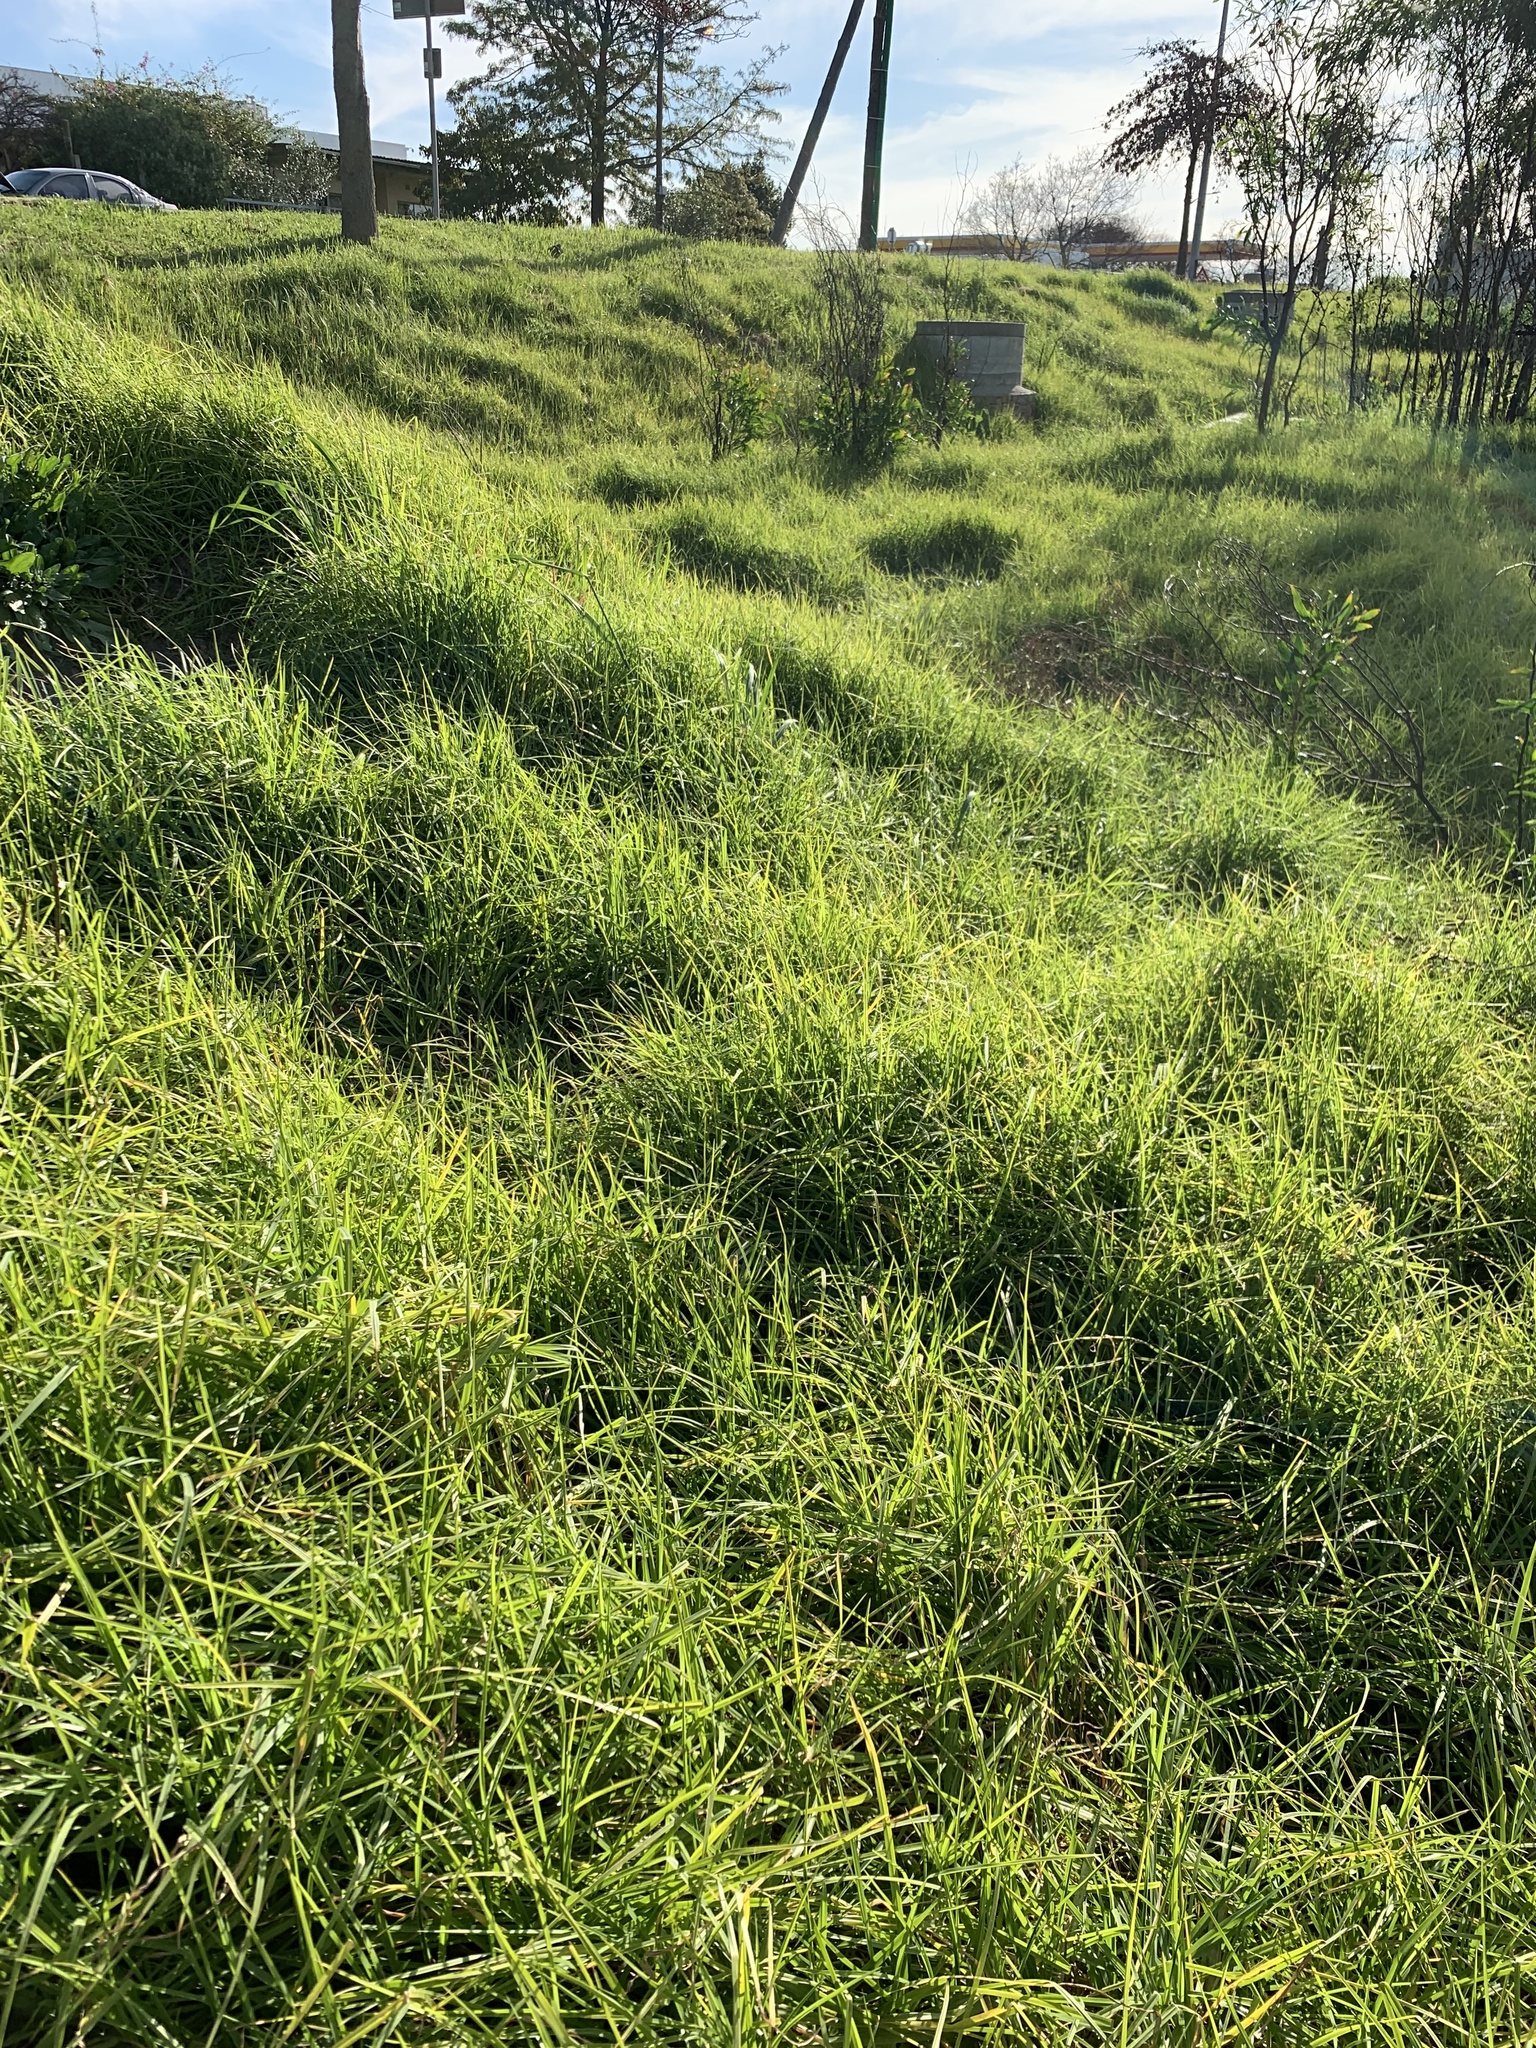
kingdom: Plantae
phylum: Tracheophyta
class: Liliopsida
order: Poales
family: Poaceae
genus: Cenchrus
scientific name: Cenchrus clandestinus
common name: Kikuyugrass
